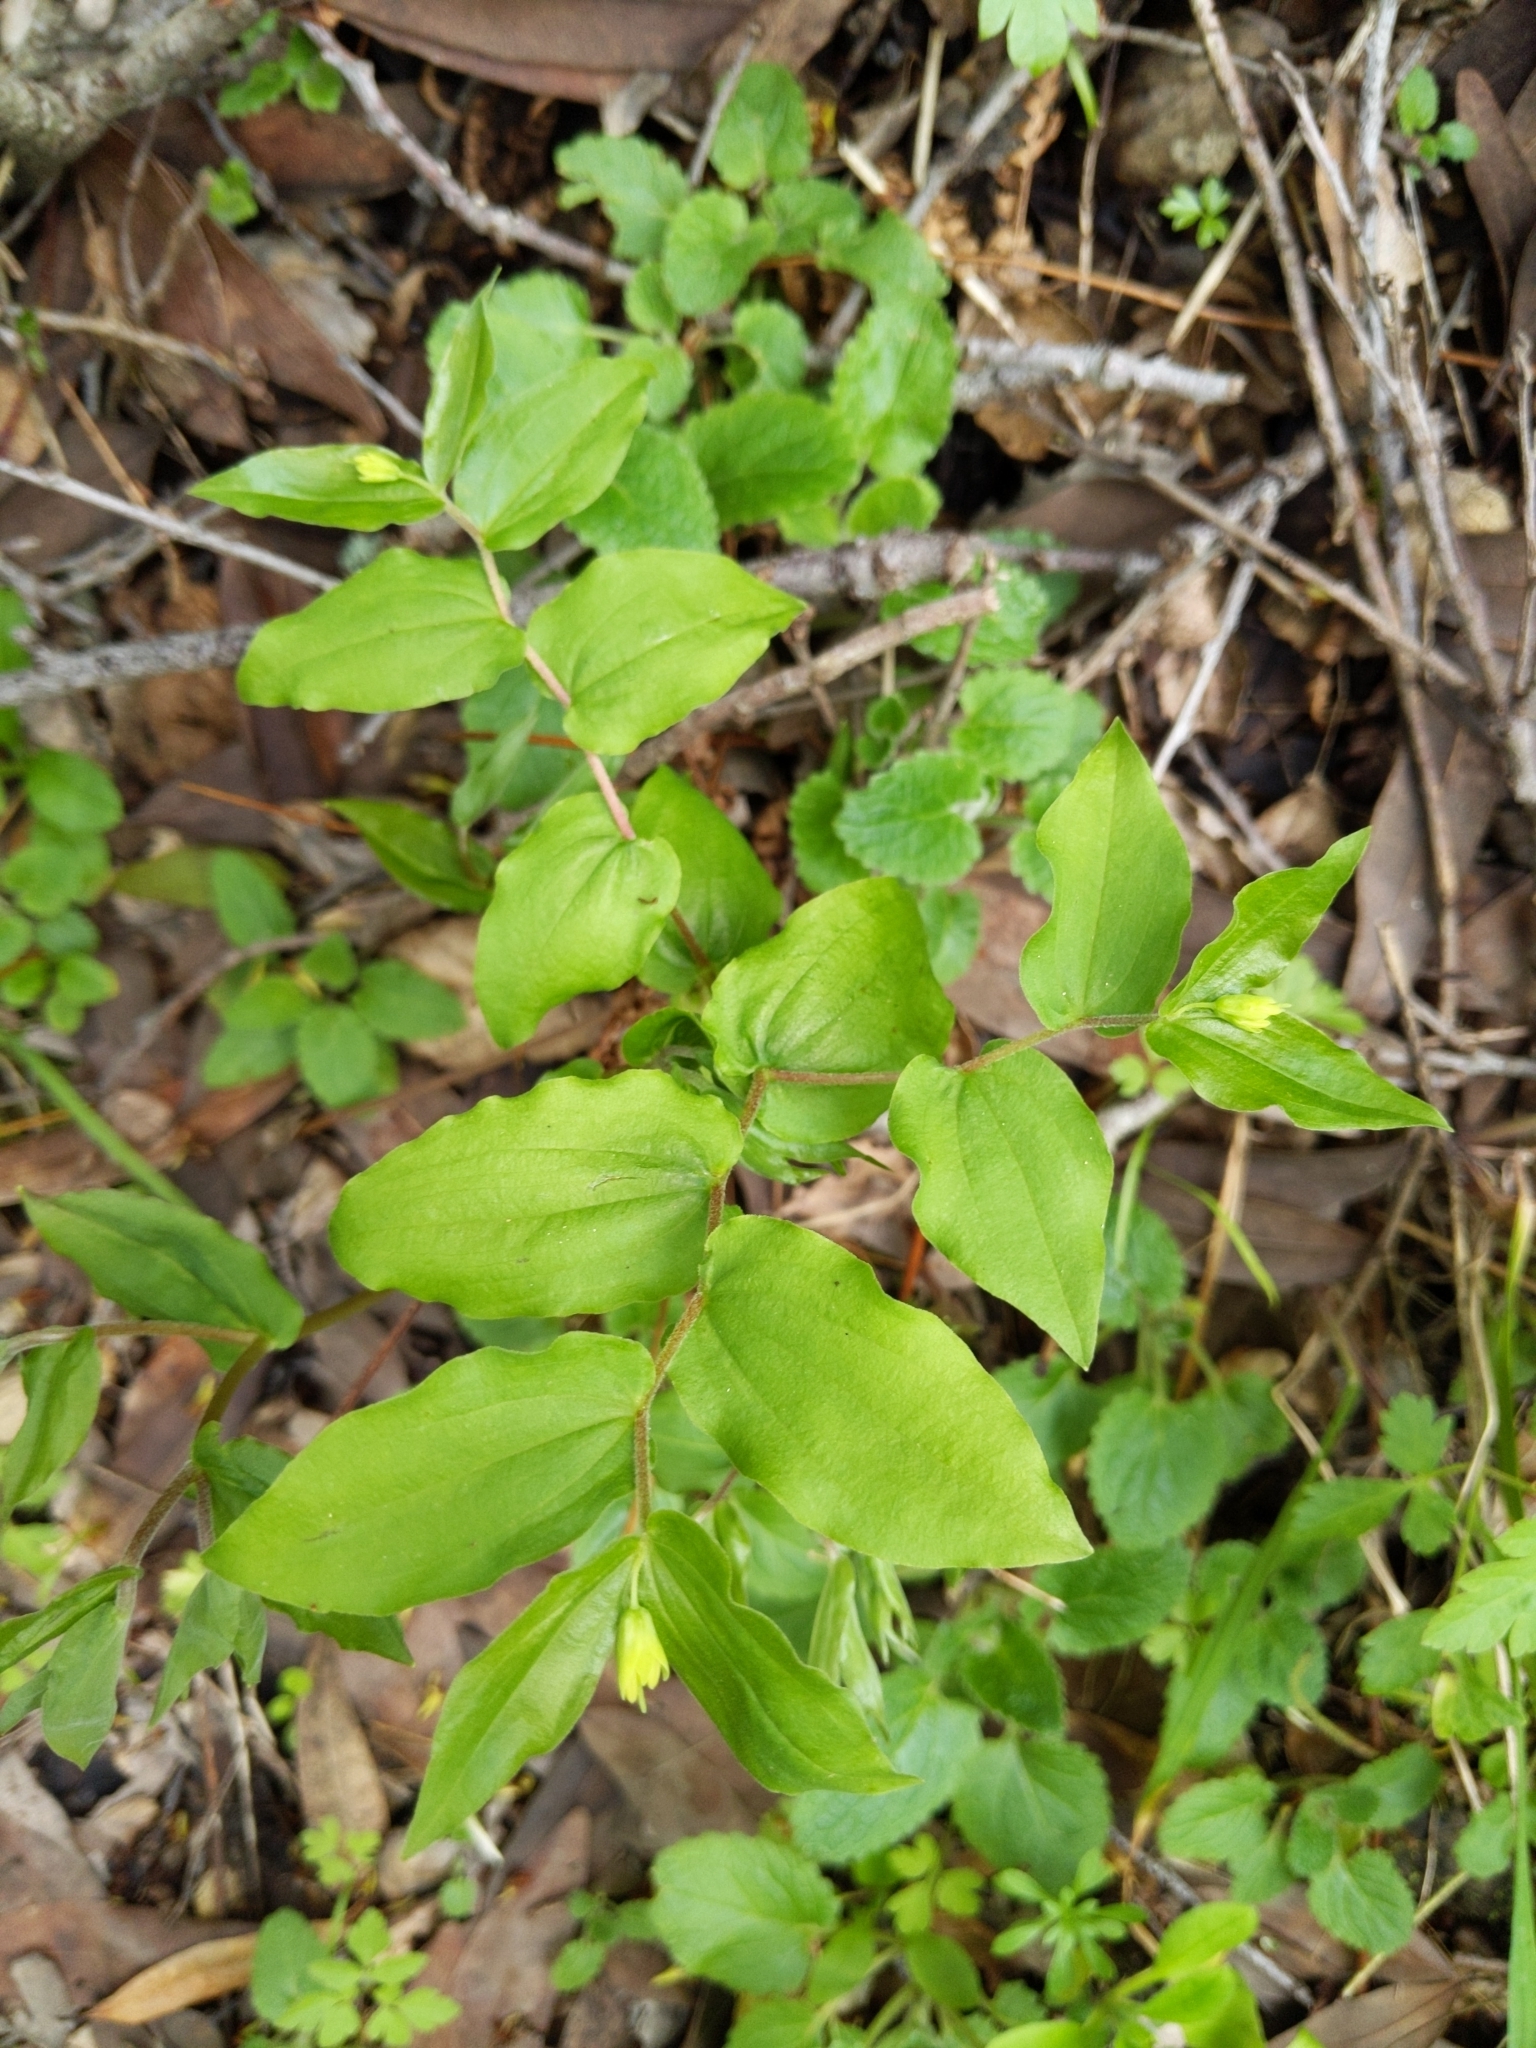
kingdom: Plantae
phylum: Tracheophyta
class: Liliopsida
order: Liliales
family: Liliaceae
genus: Prosartes
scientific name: Prosartes hookeri
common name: Fairy-bells
